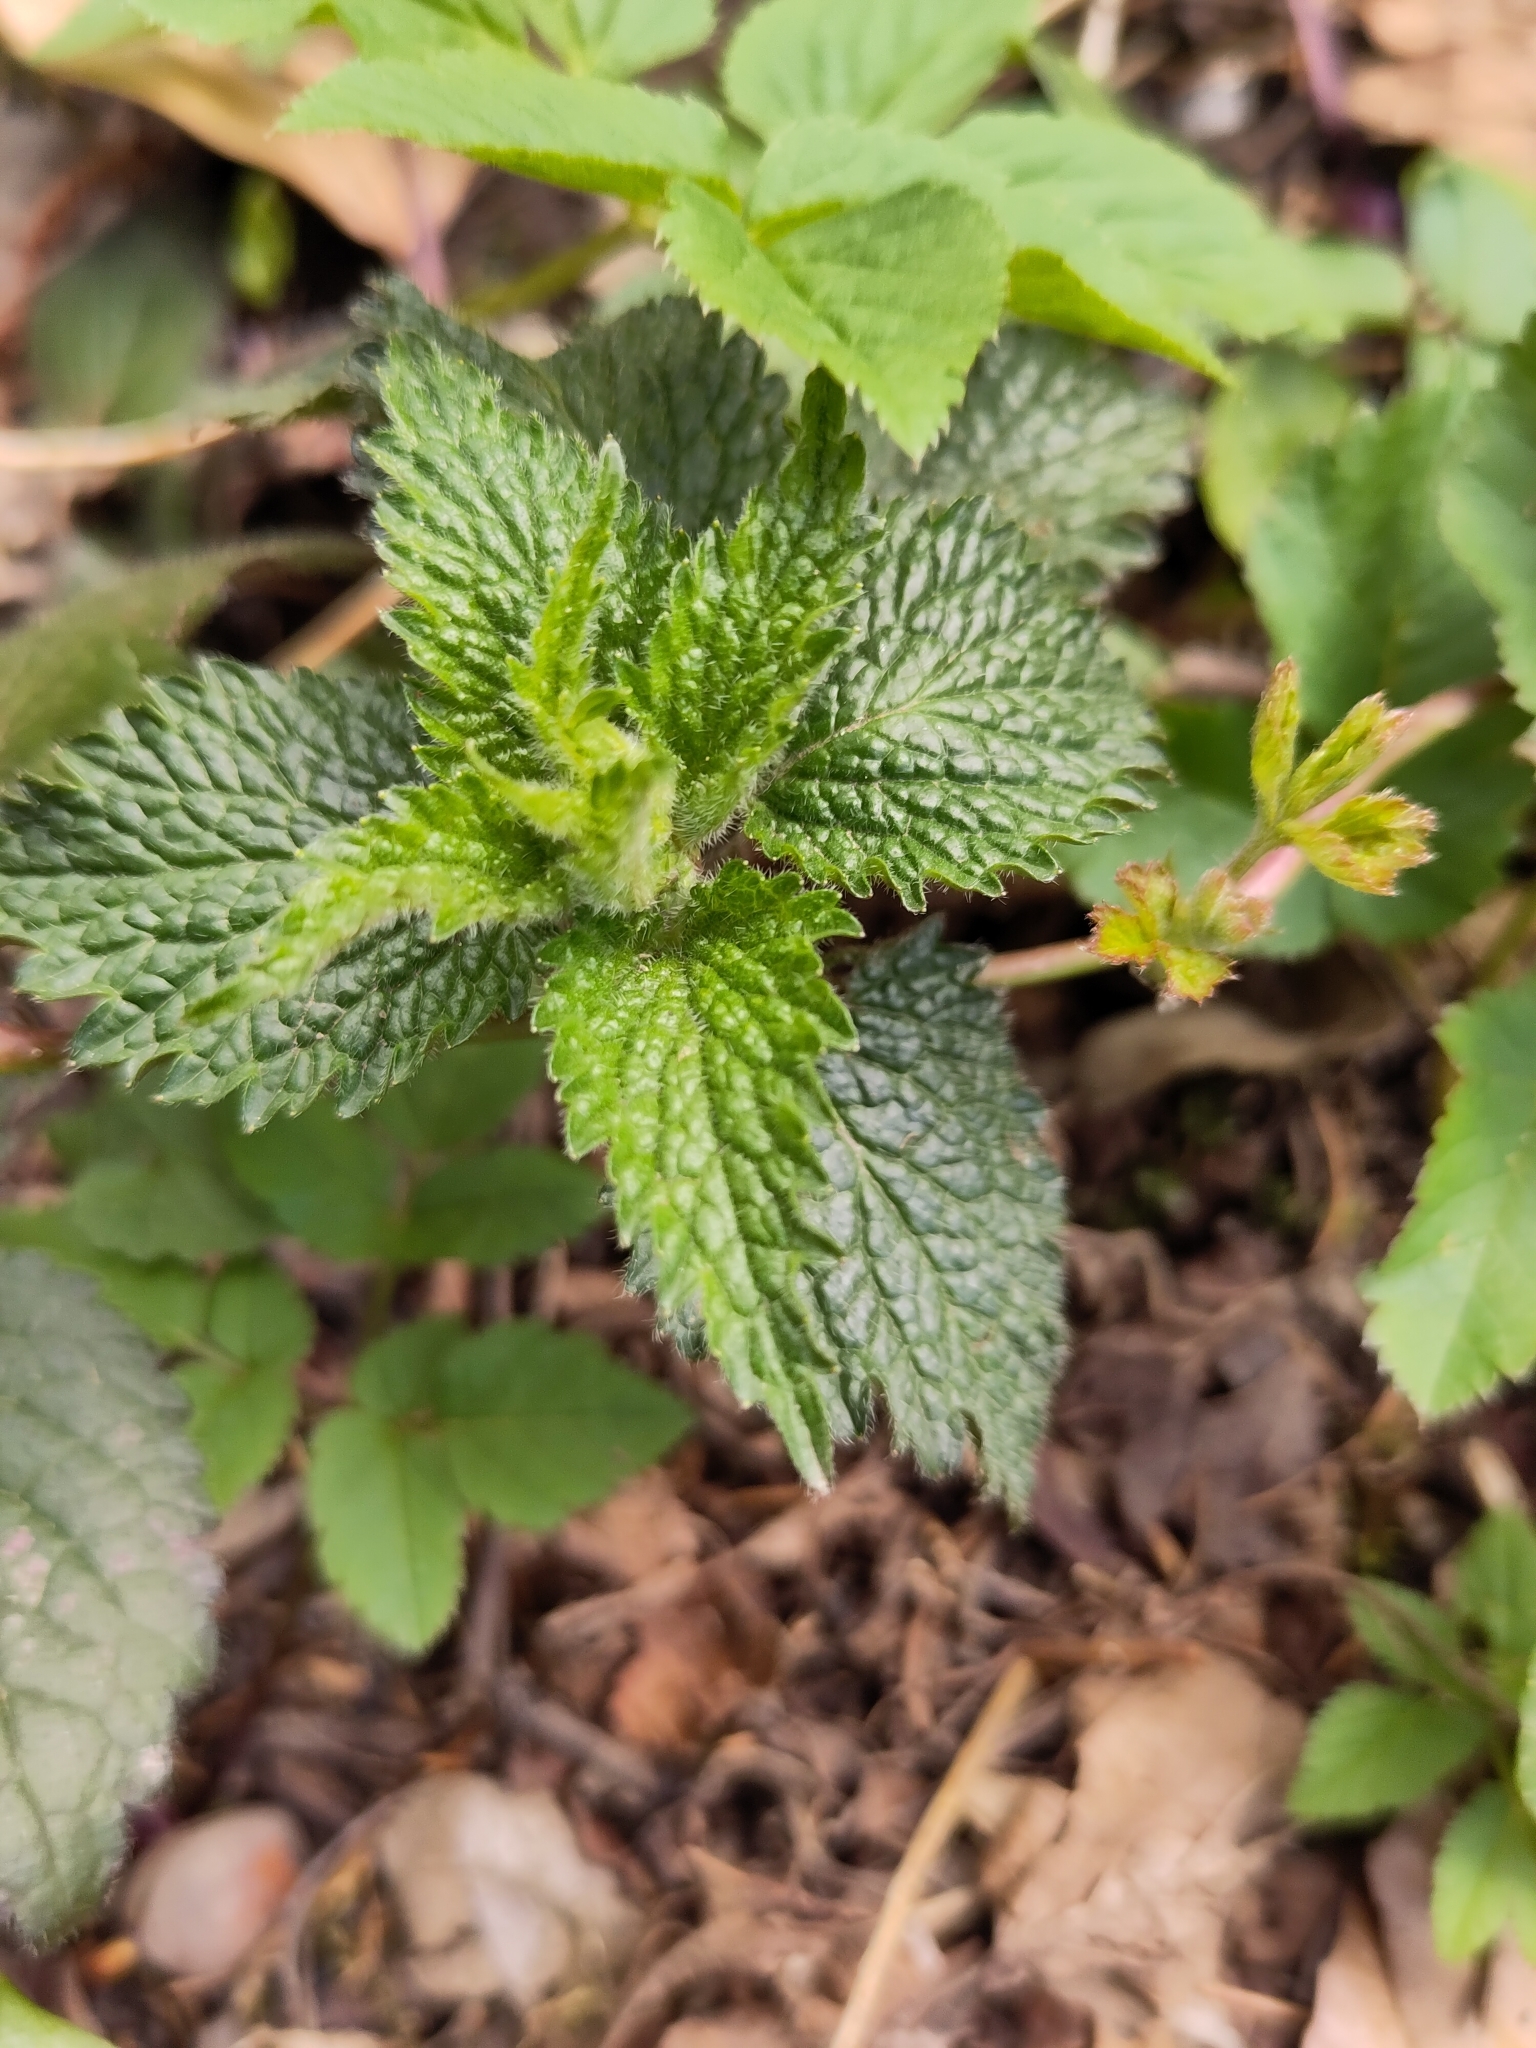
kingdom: Plantae
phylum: Tracheophyta
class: Magnoliopsida
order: Lamiales
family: Lamiaceae
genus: Lamium
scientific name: Lamium galeobdolon
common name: Yellow archangel
